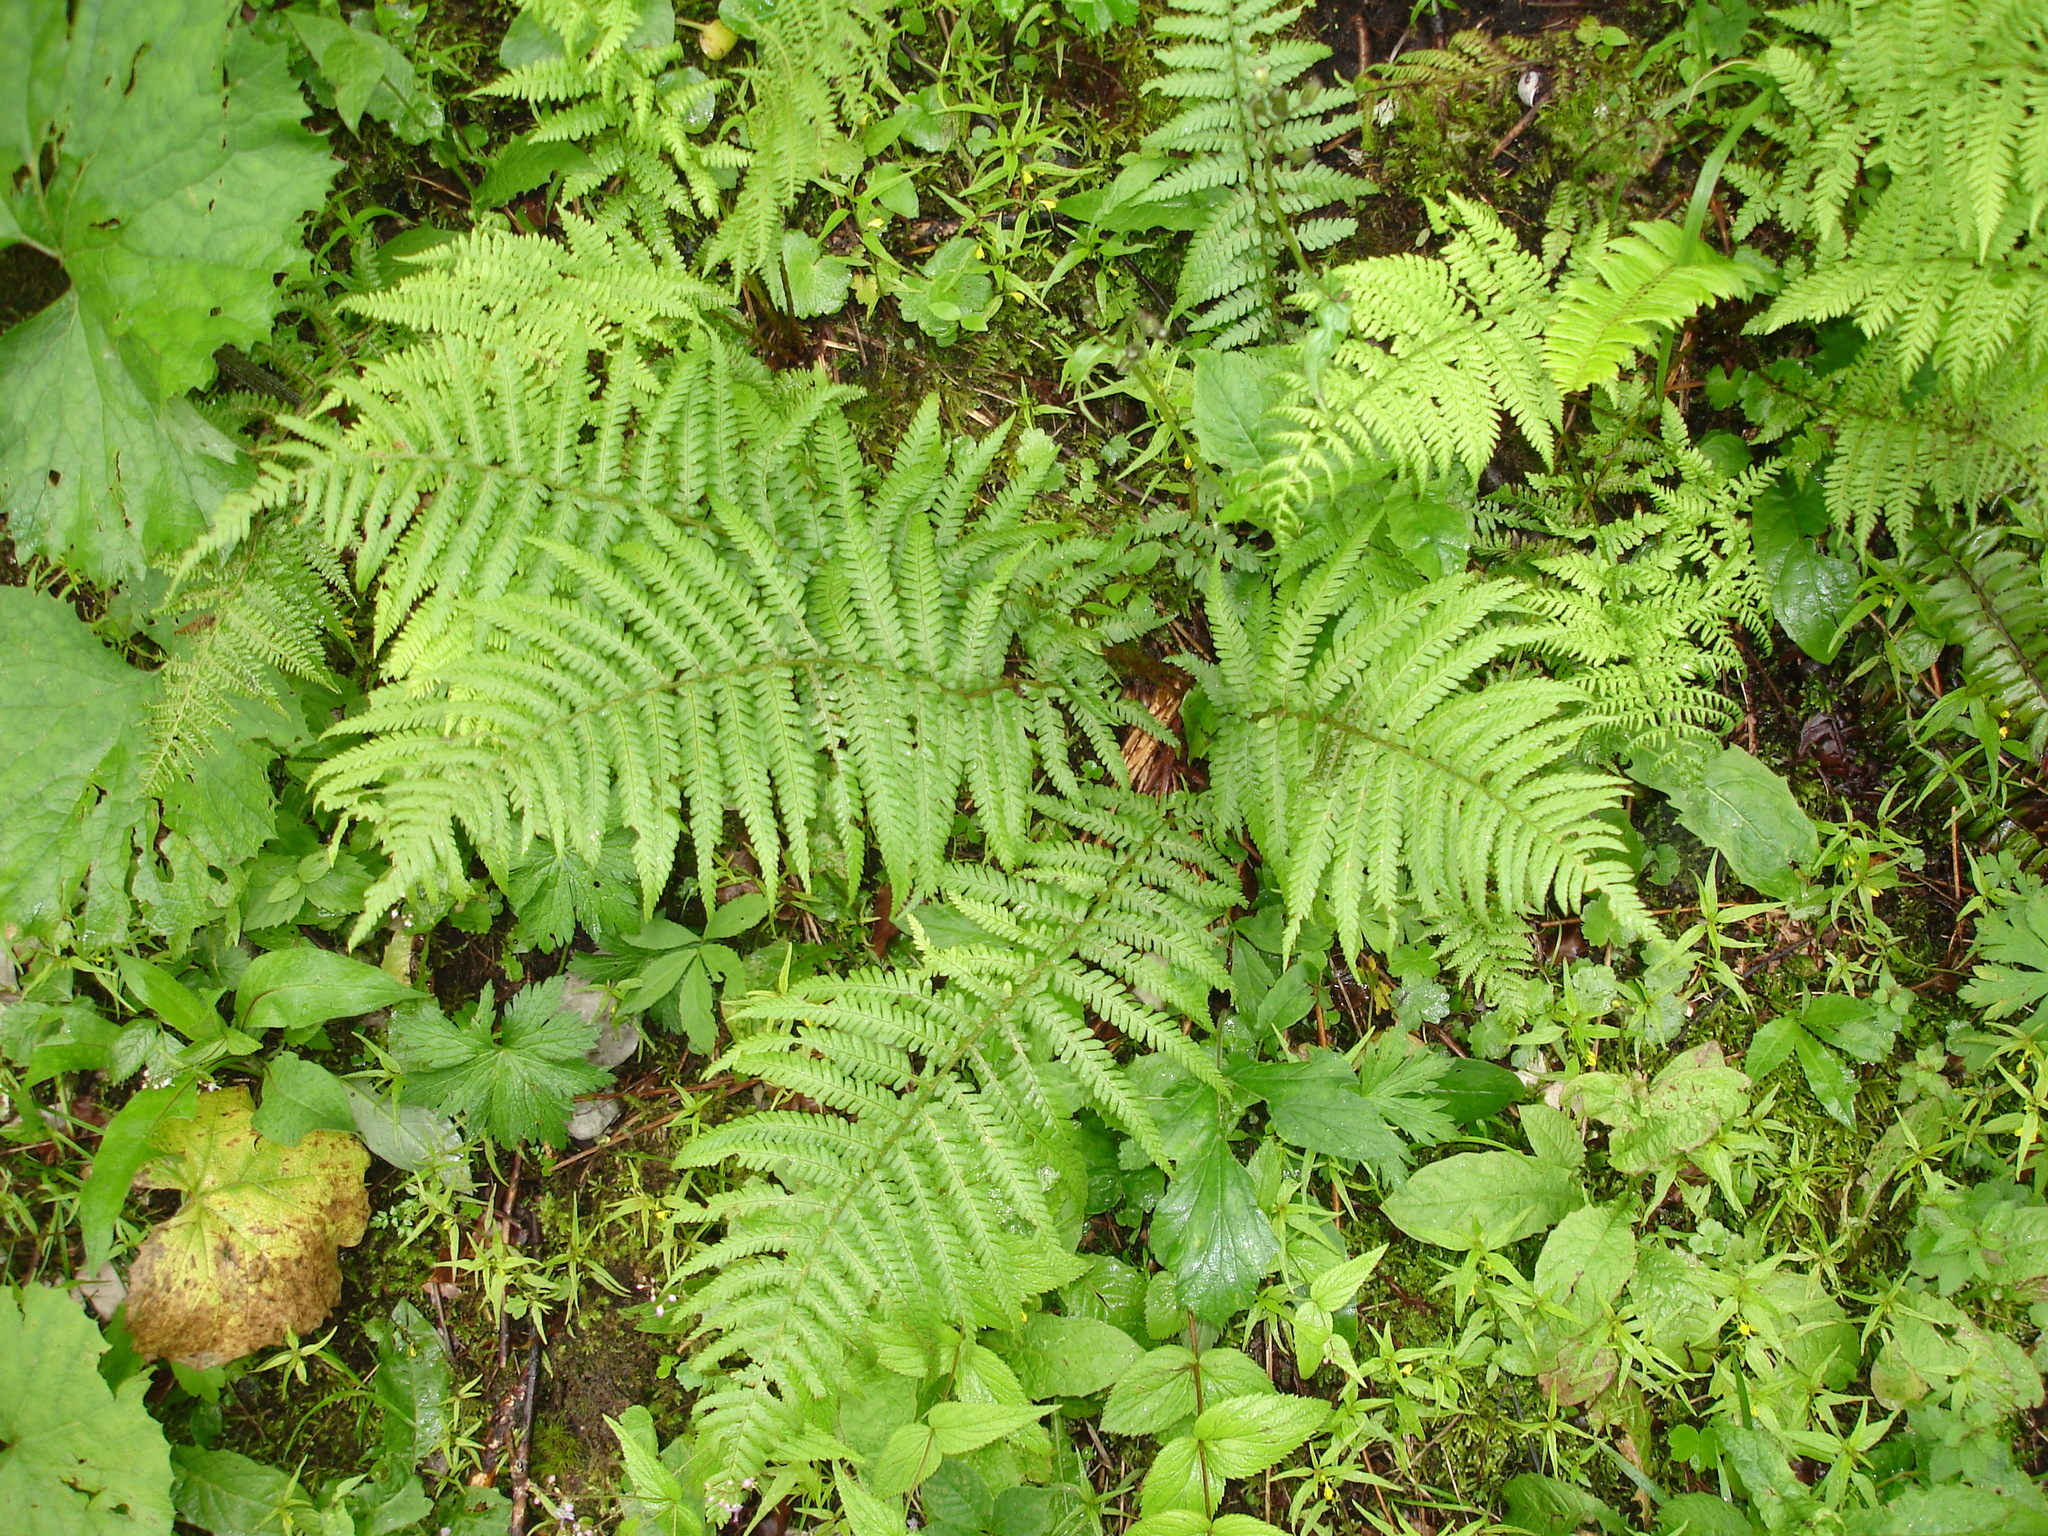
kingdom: Plantae
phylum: Tracheophyta
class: Polypodiopsida
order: Polypodiales
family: Dryopteridaceae
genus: Dryopteris
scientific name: Dryopteris filix-mas
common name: Male fern
